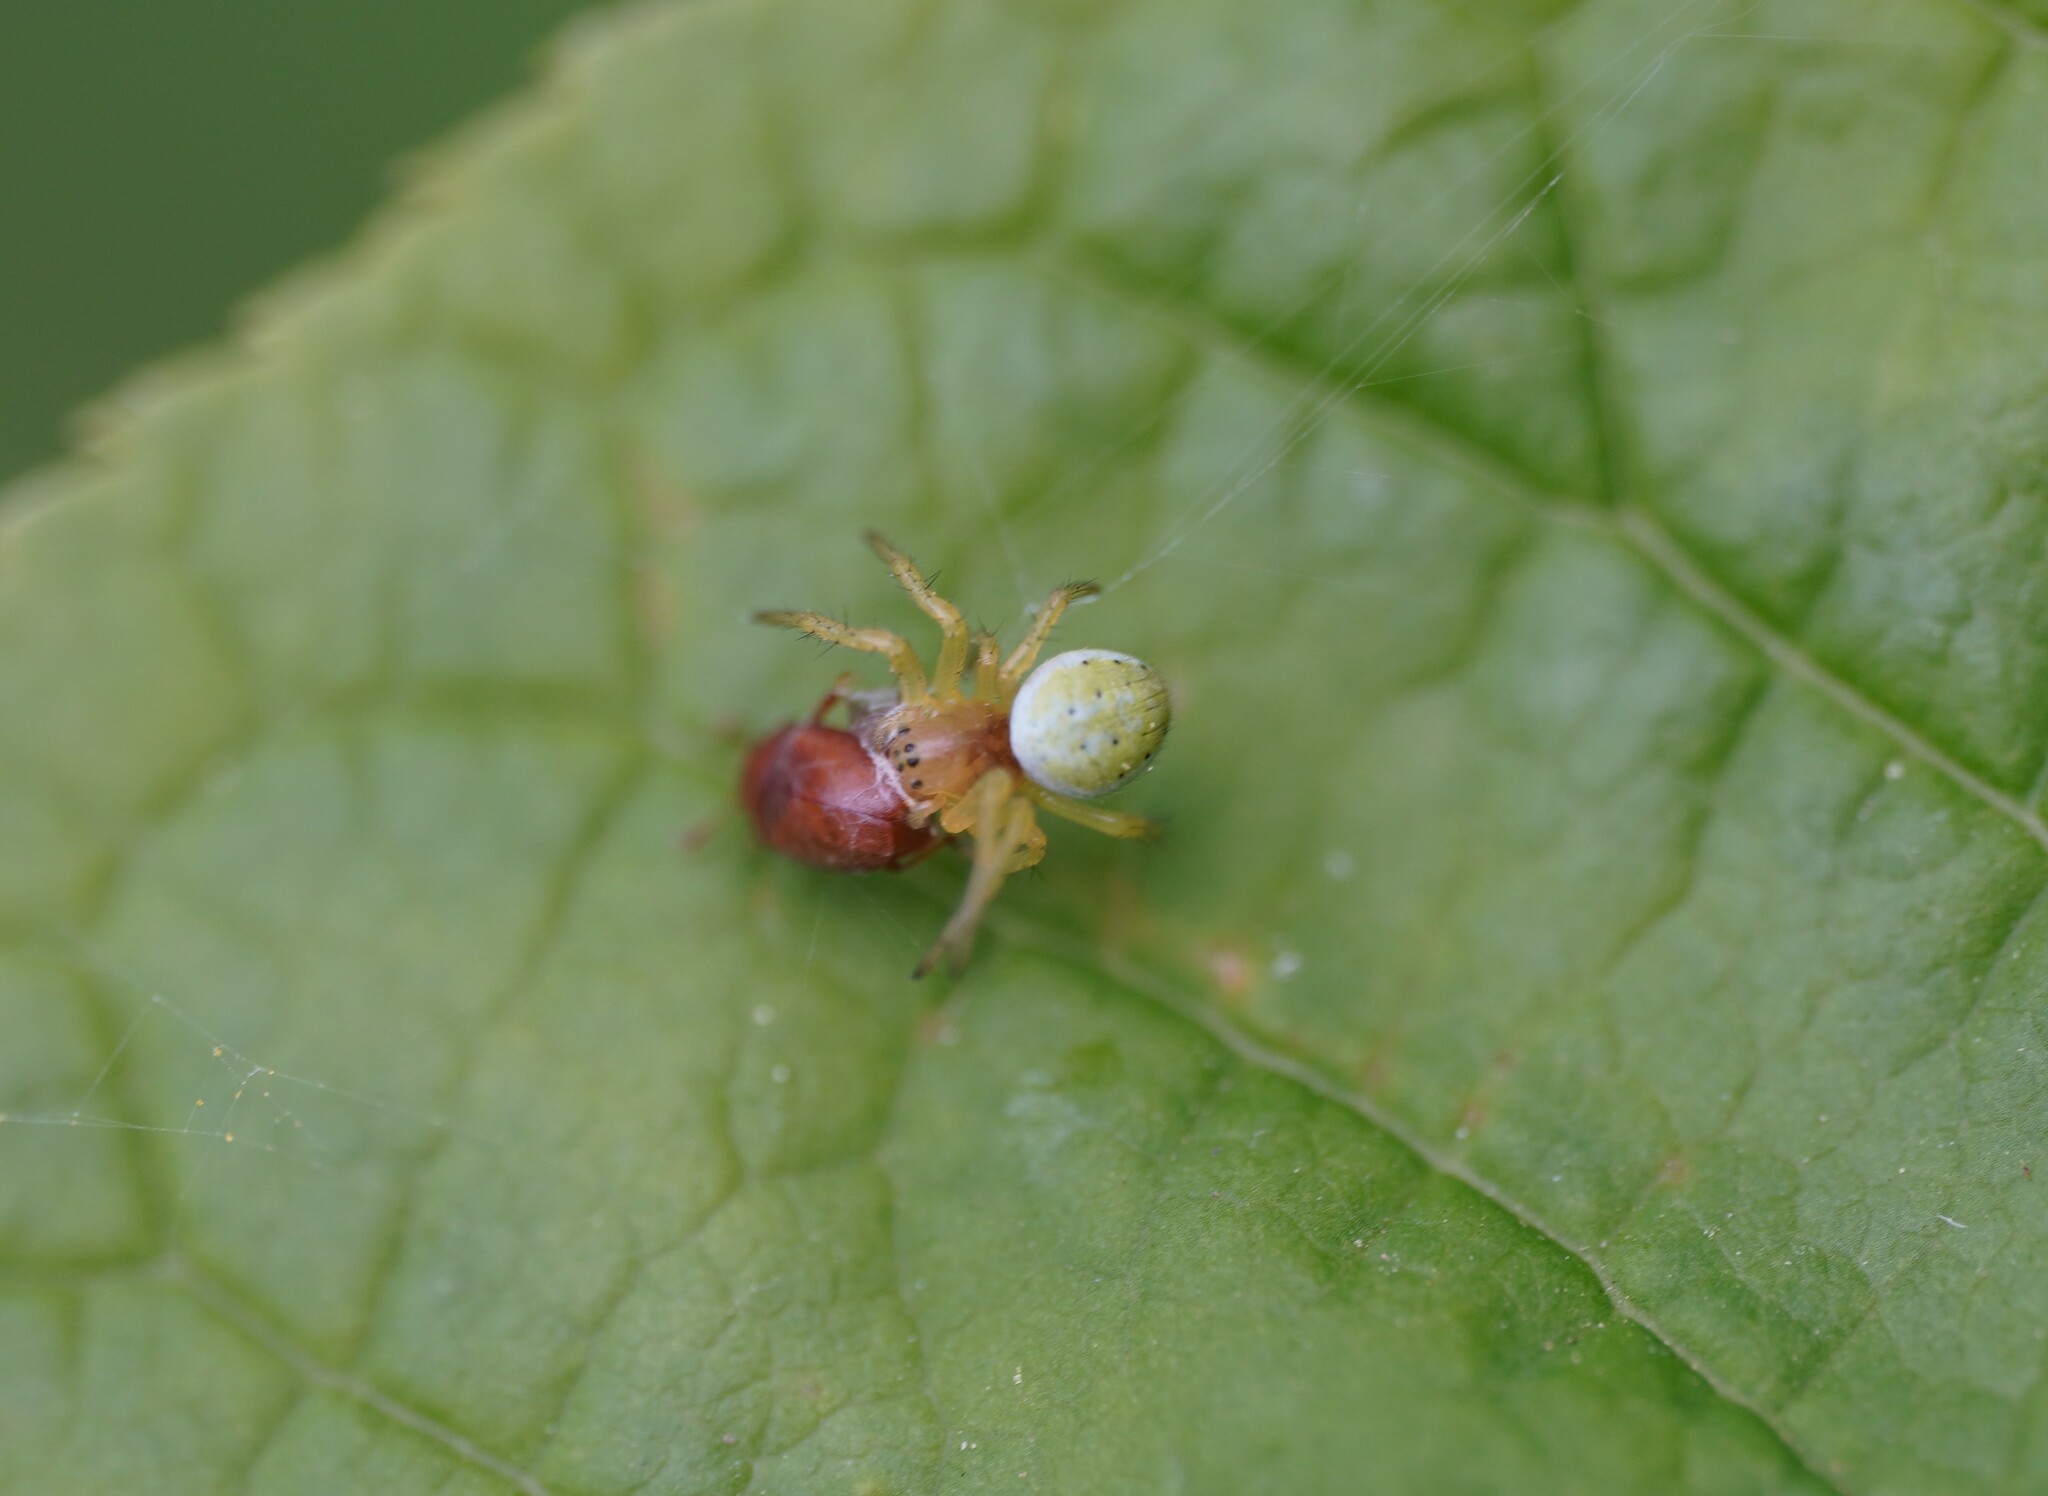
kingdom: Animalia
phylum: Arthropoda
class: Arachnida
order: Araneae
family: Araneidae
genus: Araniella
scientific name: Araniella
